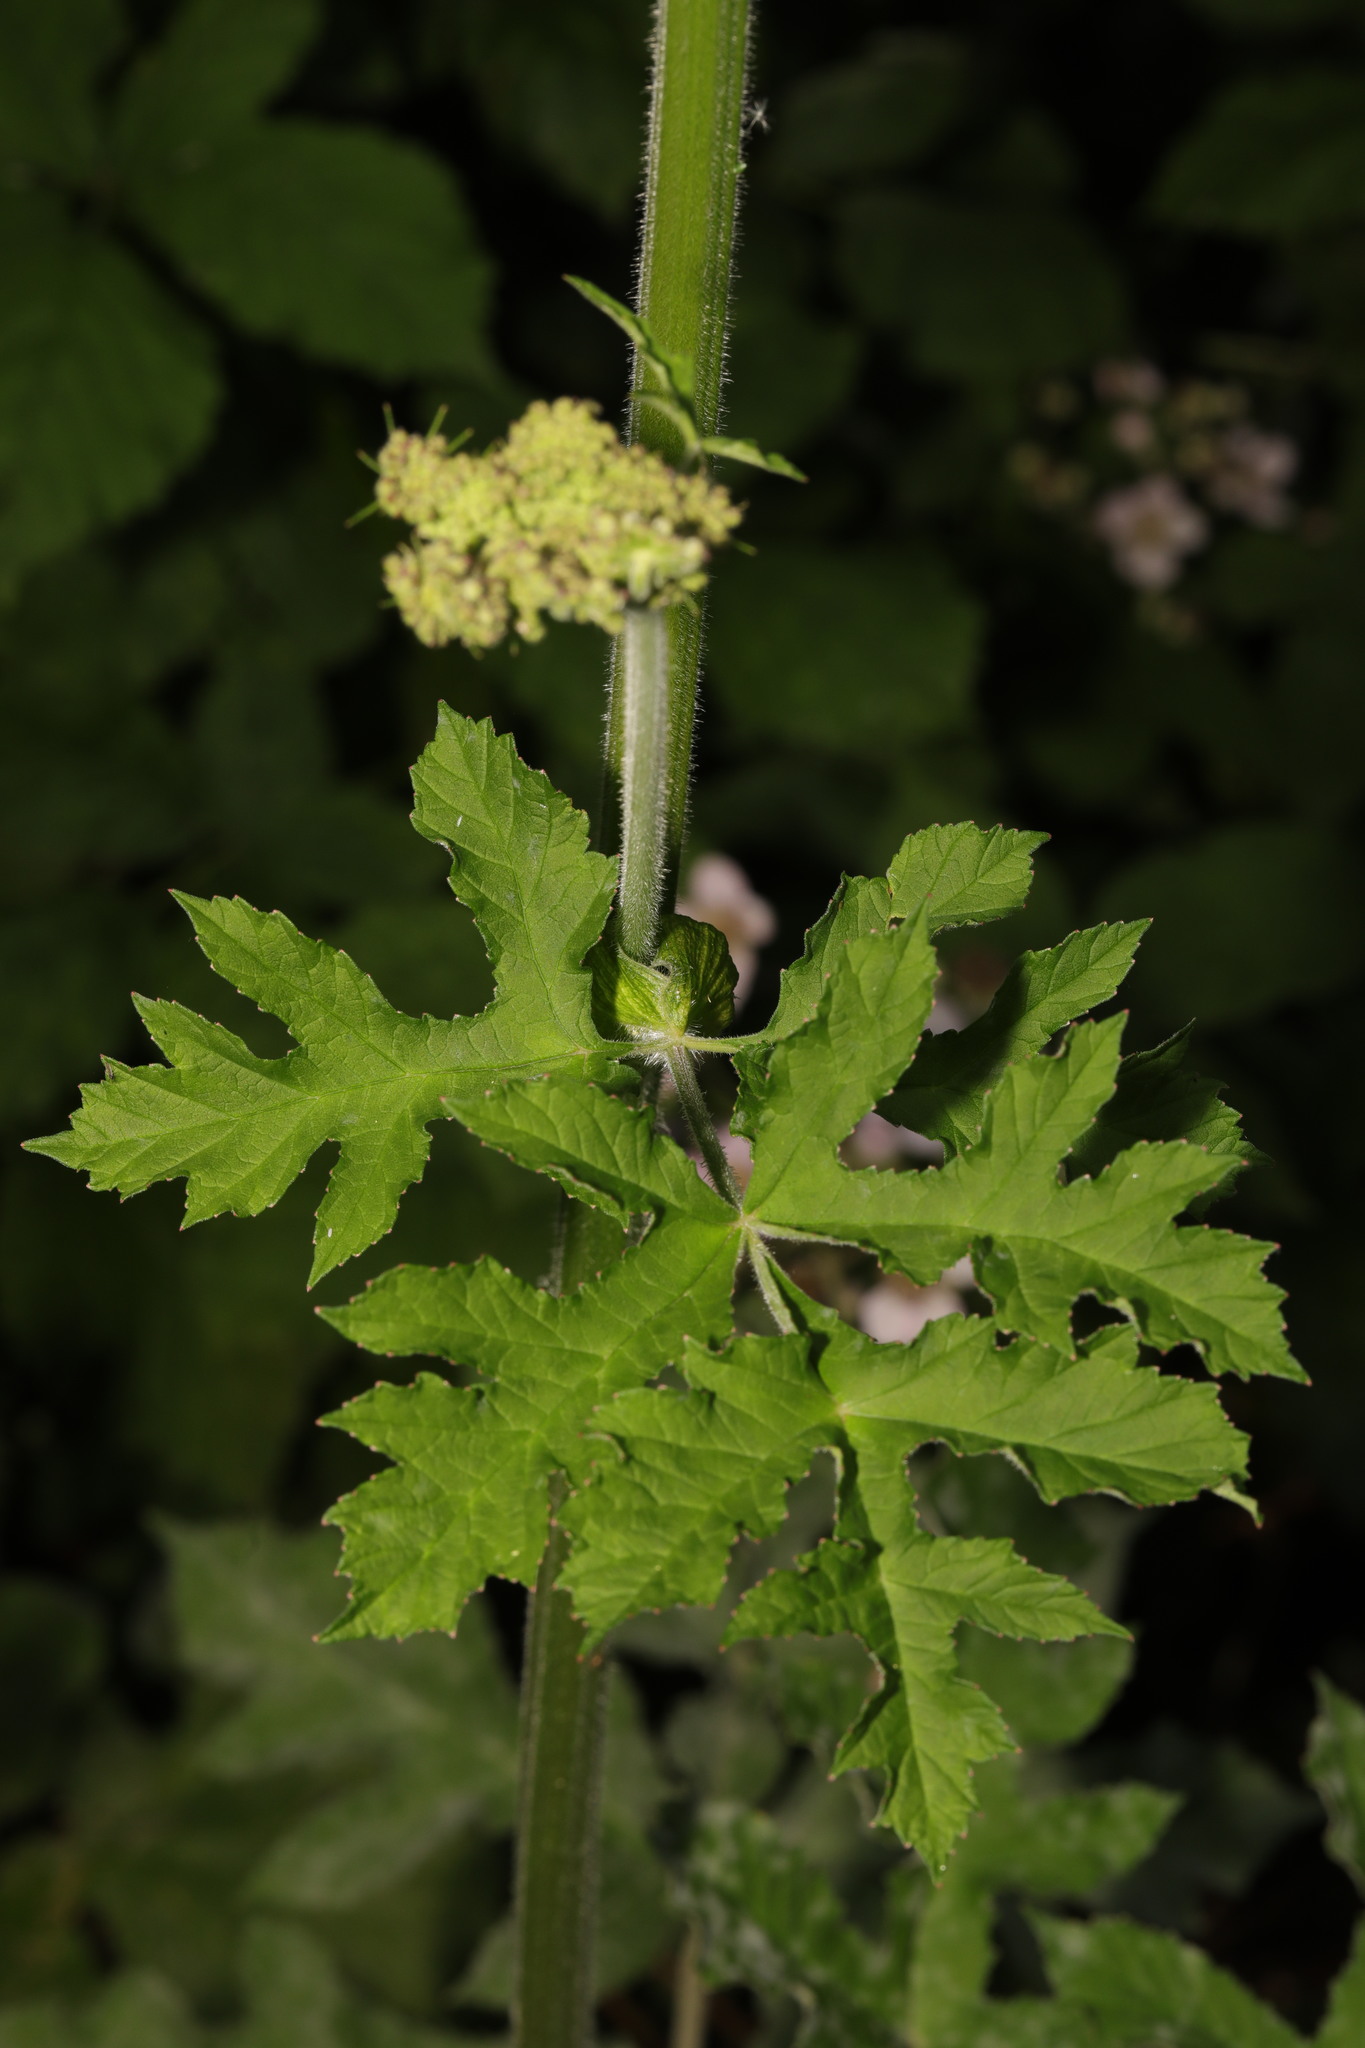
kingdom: Plantae
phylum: Tracheophyta
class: Magnoliopsida
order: Apiales
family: Apiaceae
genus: Heracleum
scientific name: Heracleum sphondylium
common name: Hogweed
